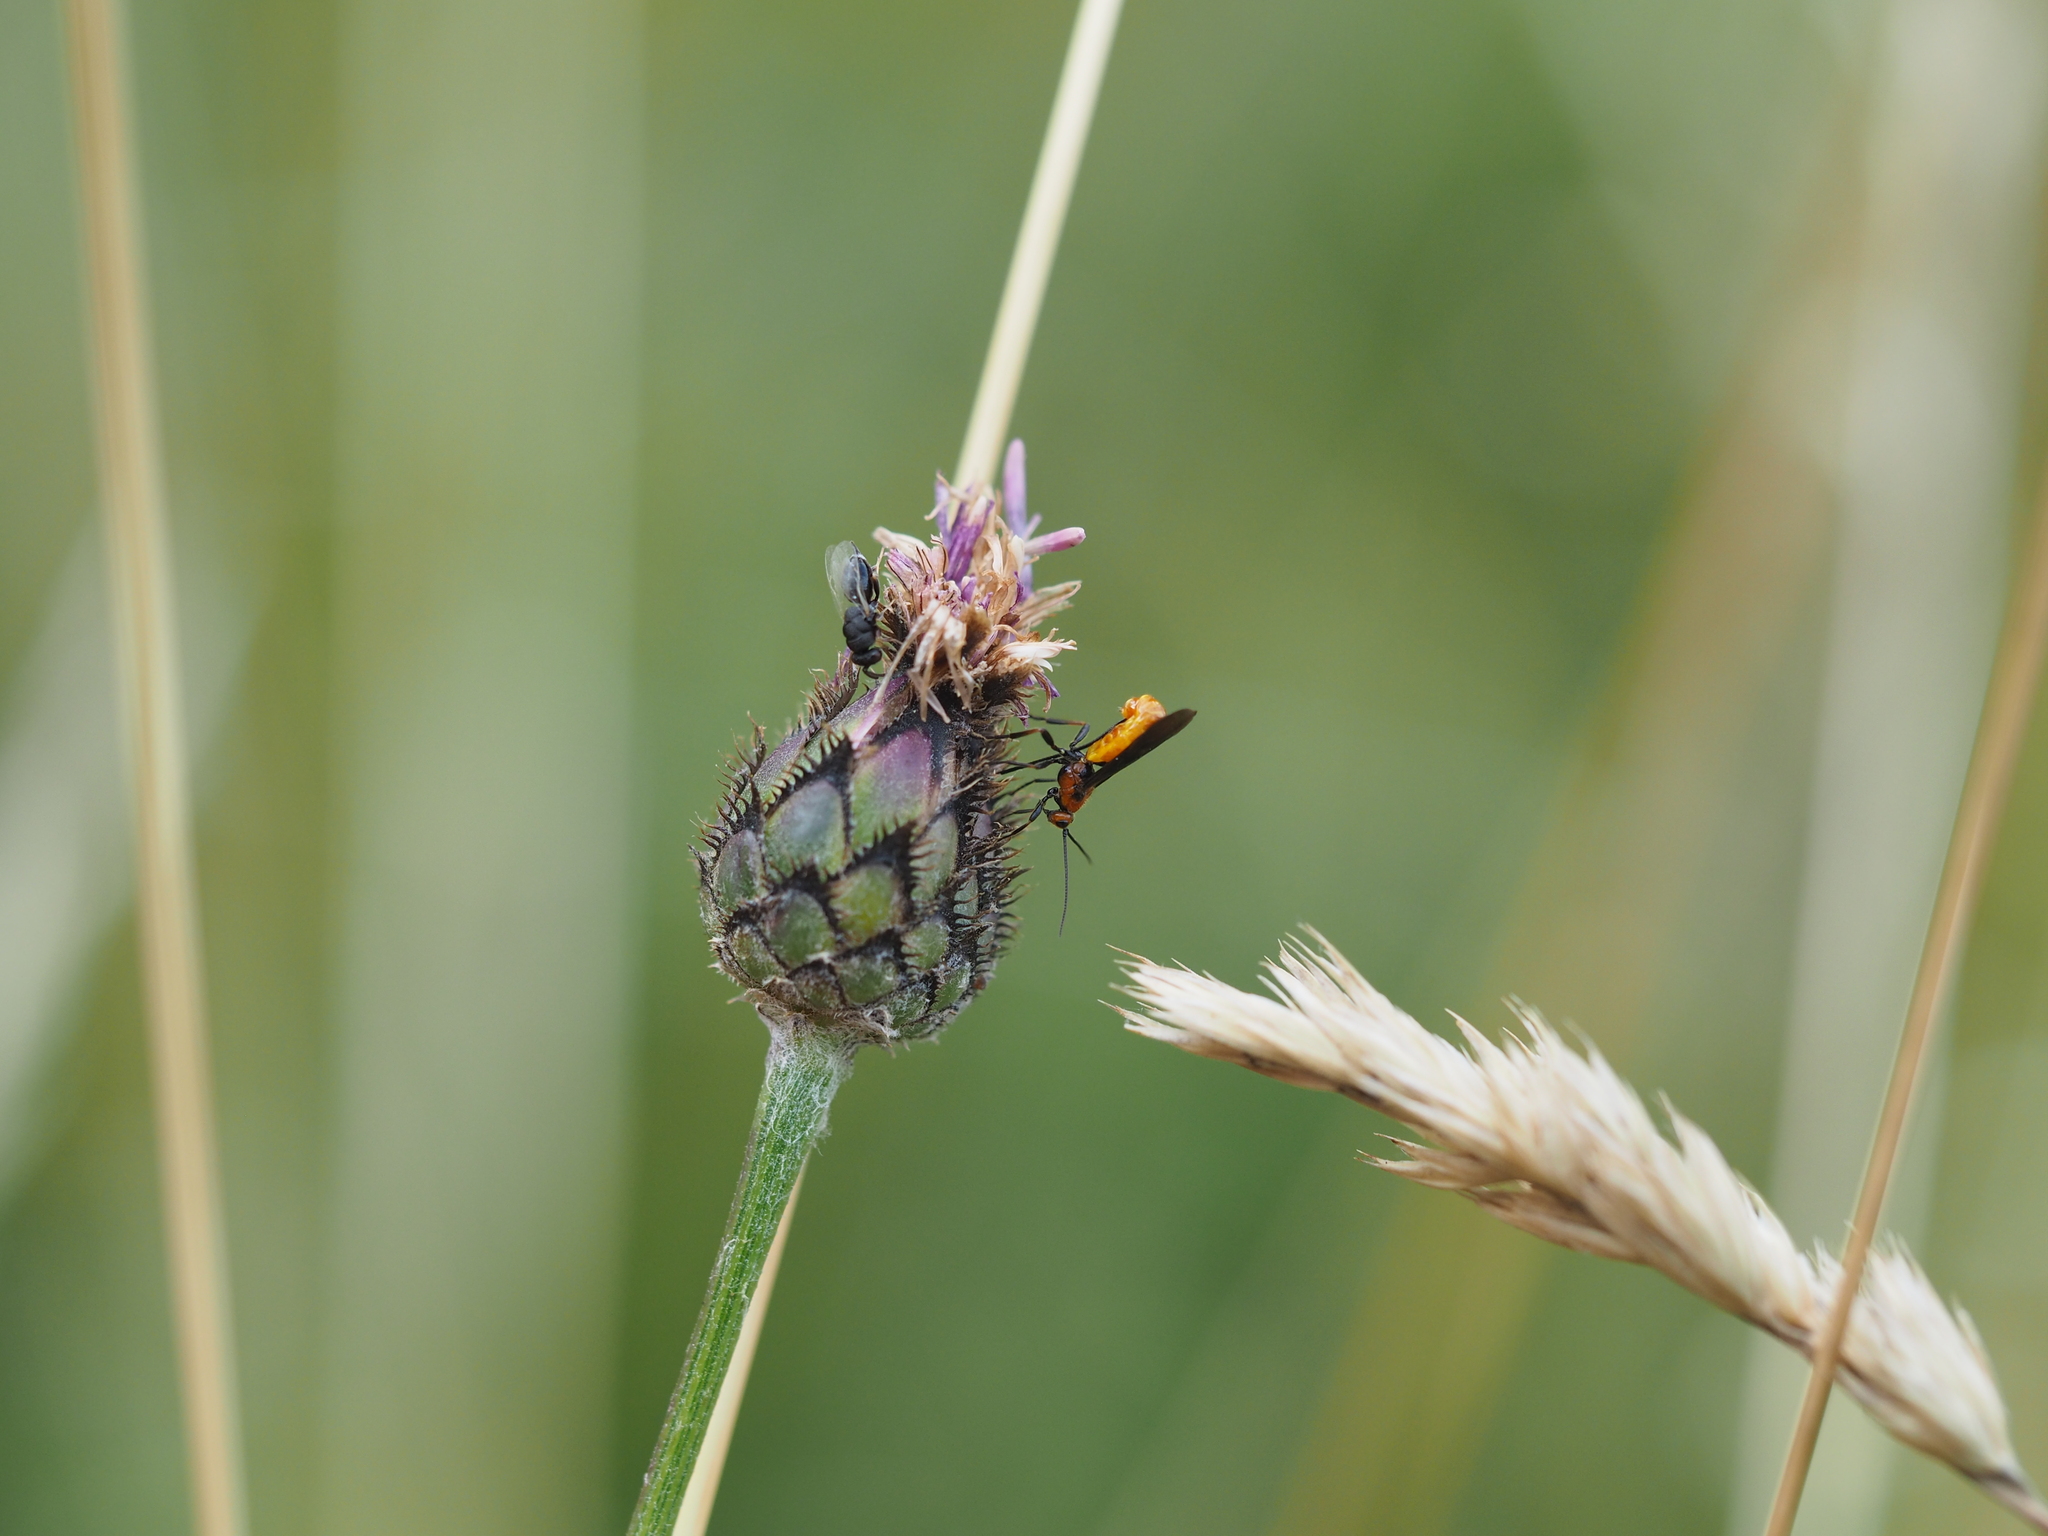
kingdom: Plantae
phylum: Tracheophyta
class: Magnoliopsida
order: Asterales
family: Asteraceae
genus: Centaurea
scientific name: Centaurea scabiosa
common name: Greater knapweed
